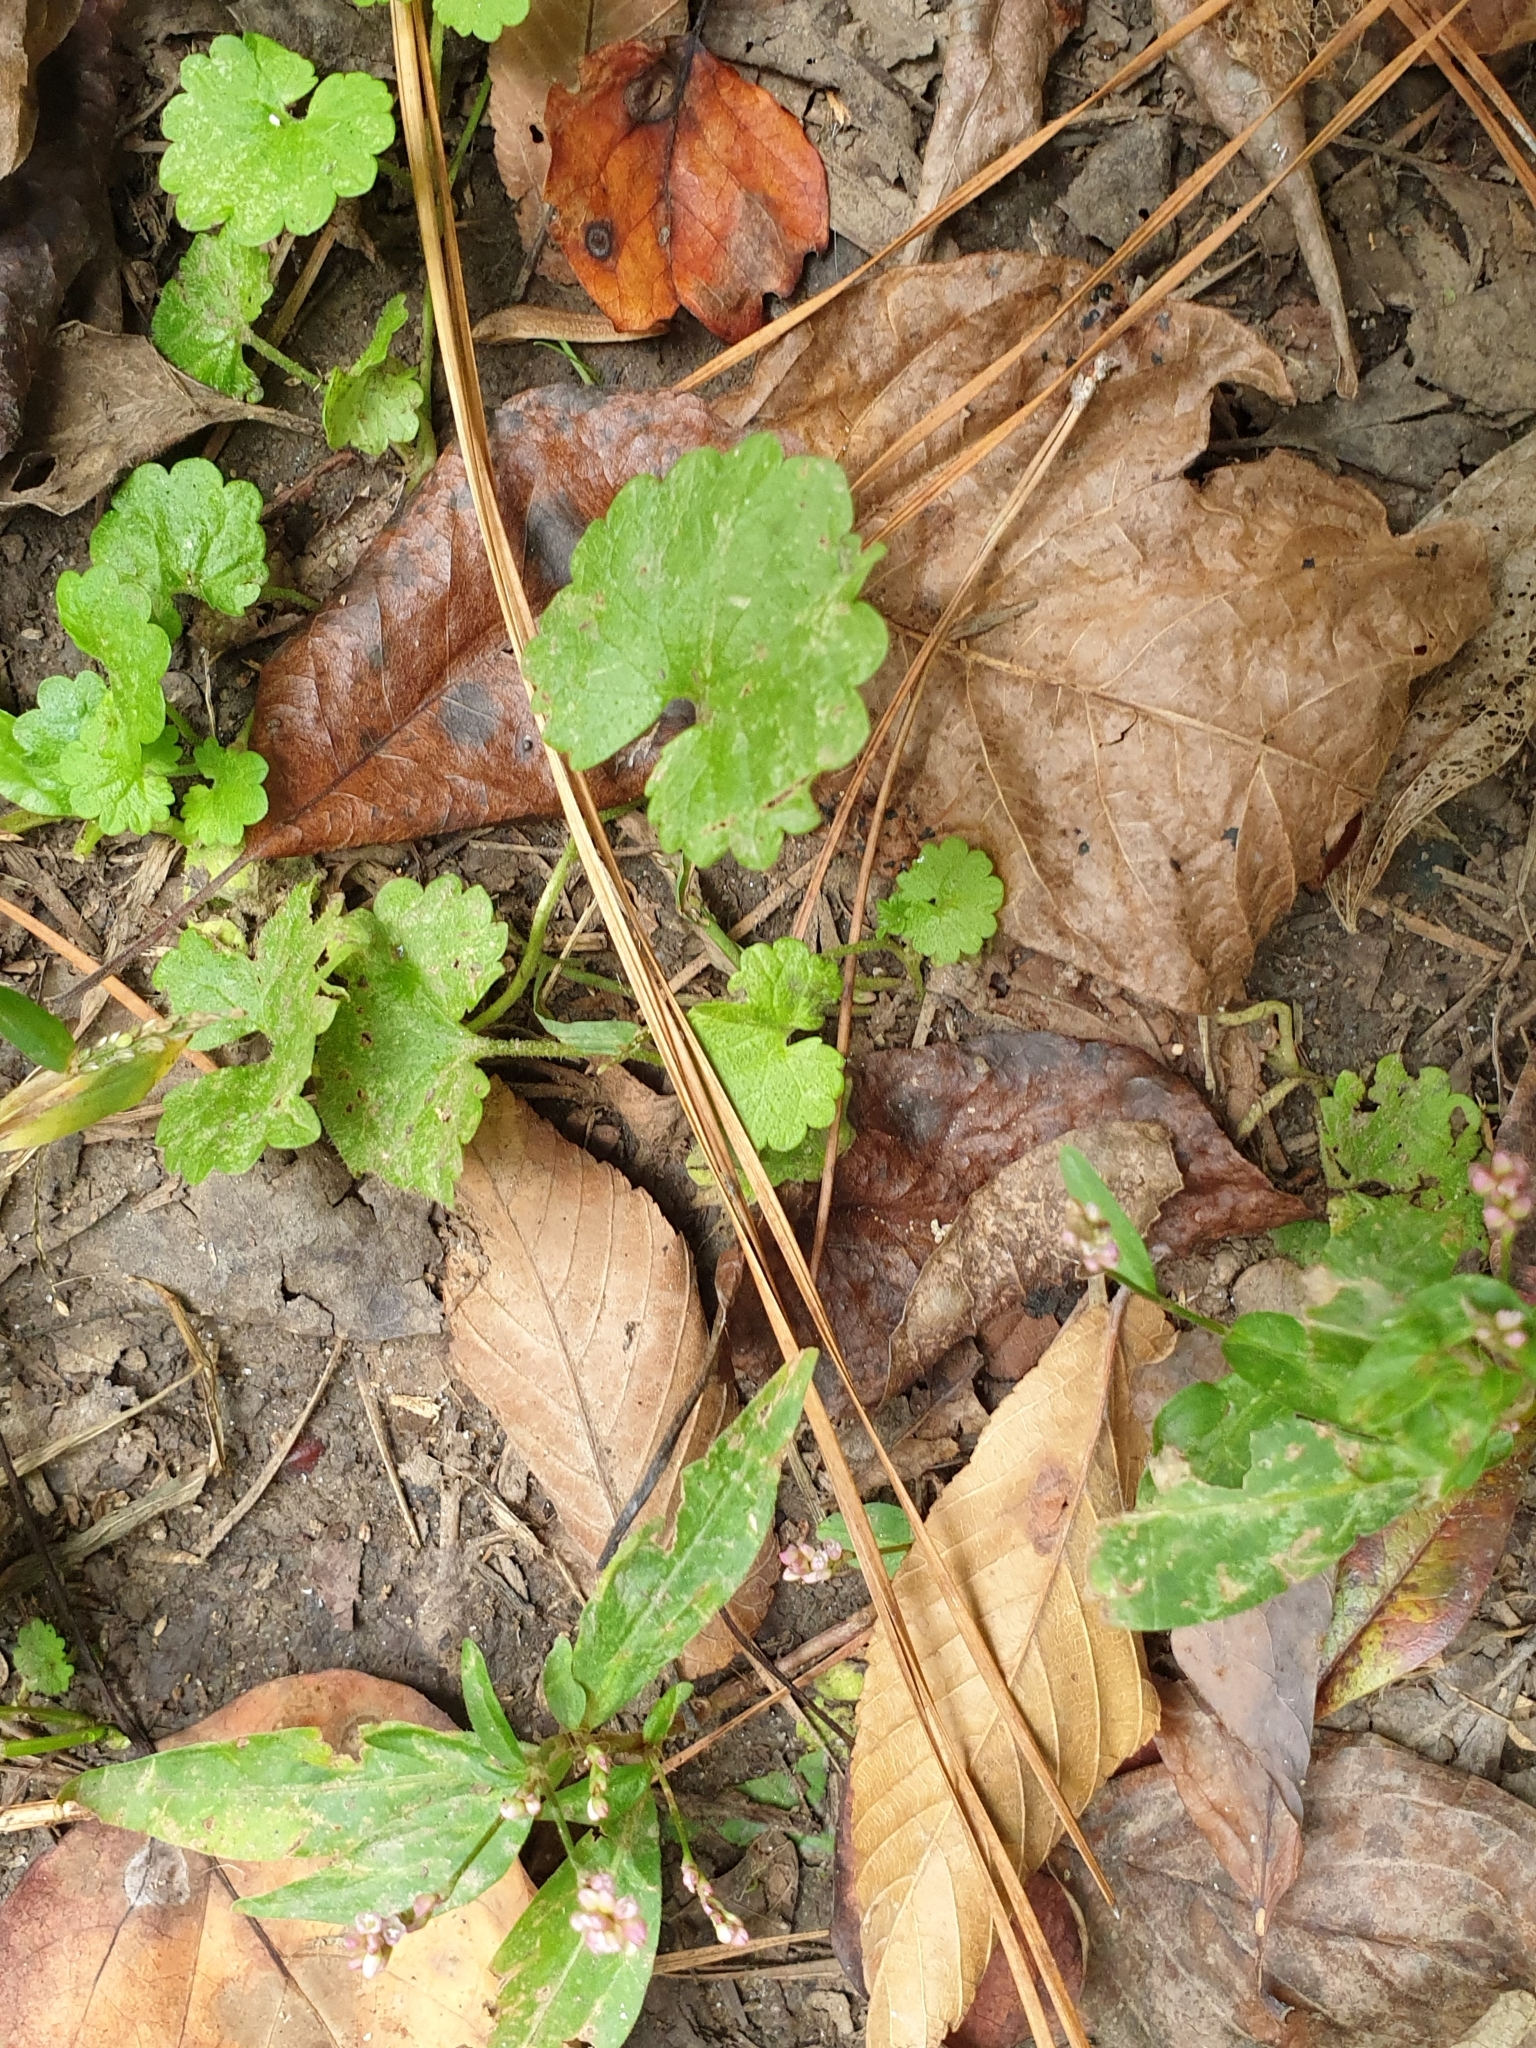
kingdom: Plantae
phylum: Tracheophyta
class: Magnoliopsida
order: Lamiales
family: Lamiaceae
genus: Glechoma
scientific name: Glechoma hederacea
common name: Ground ivy
